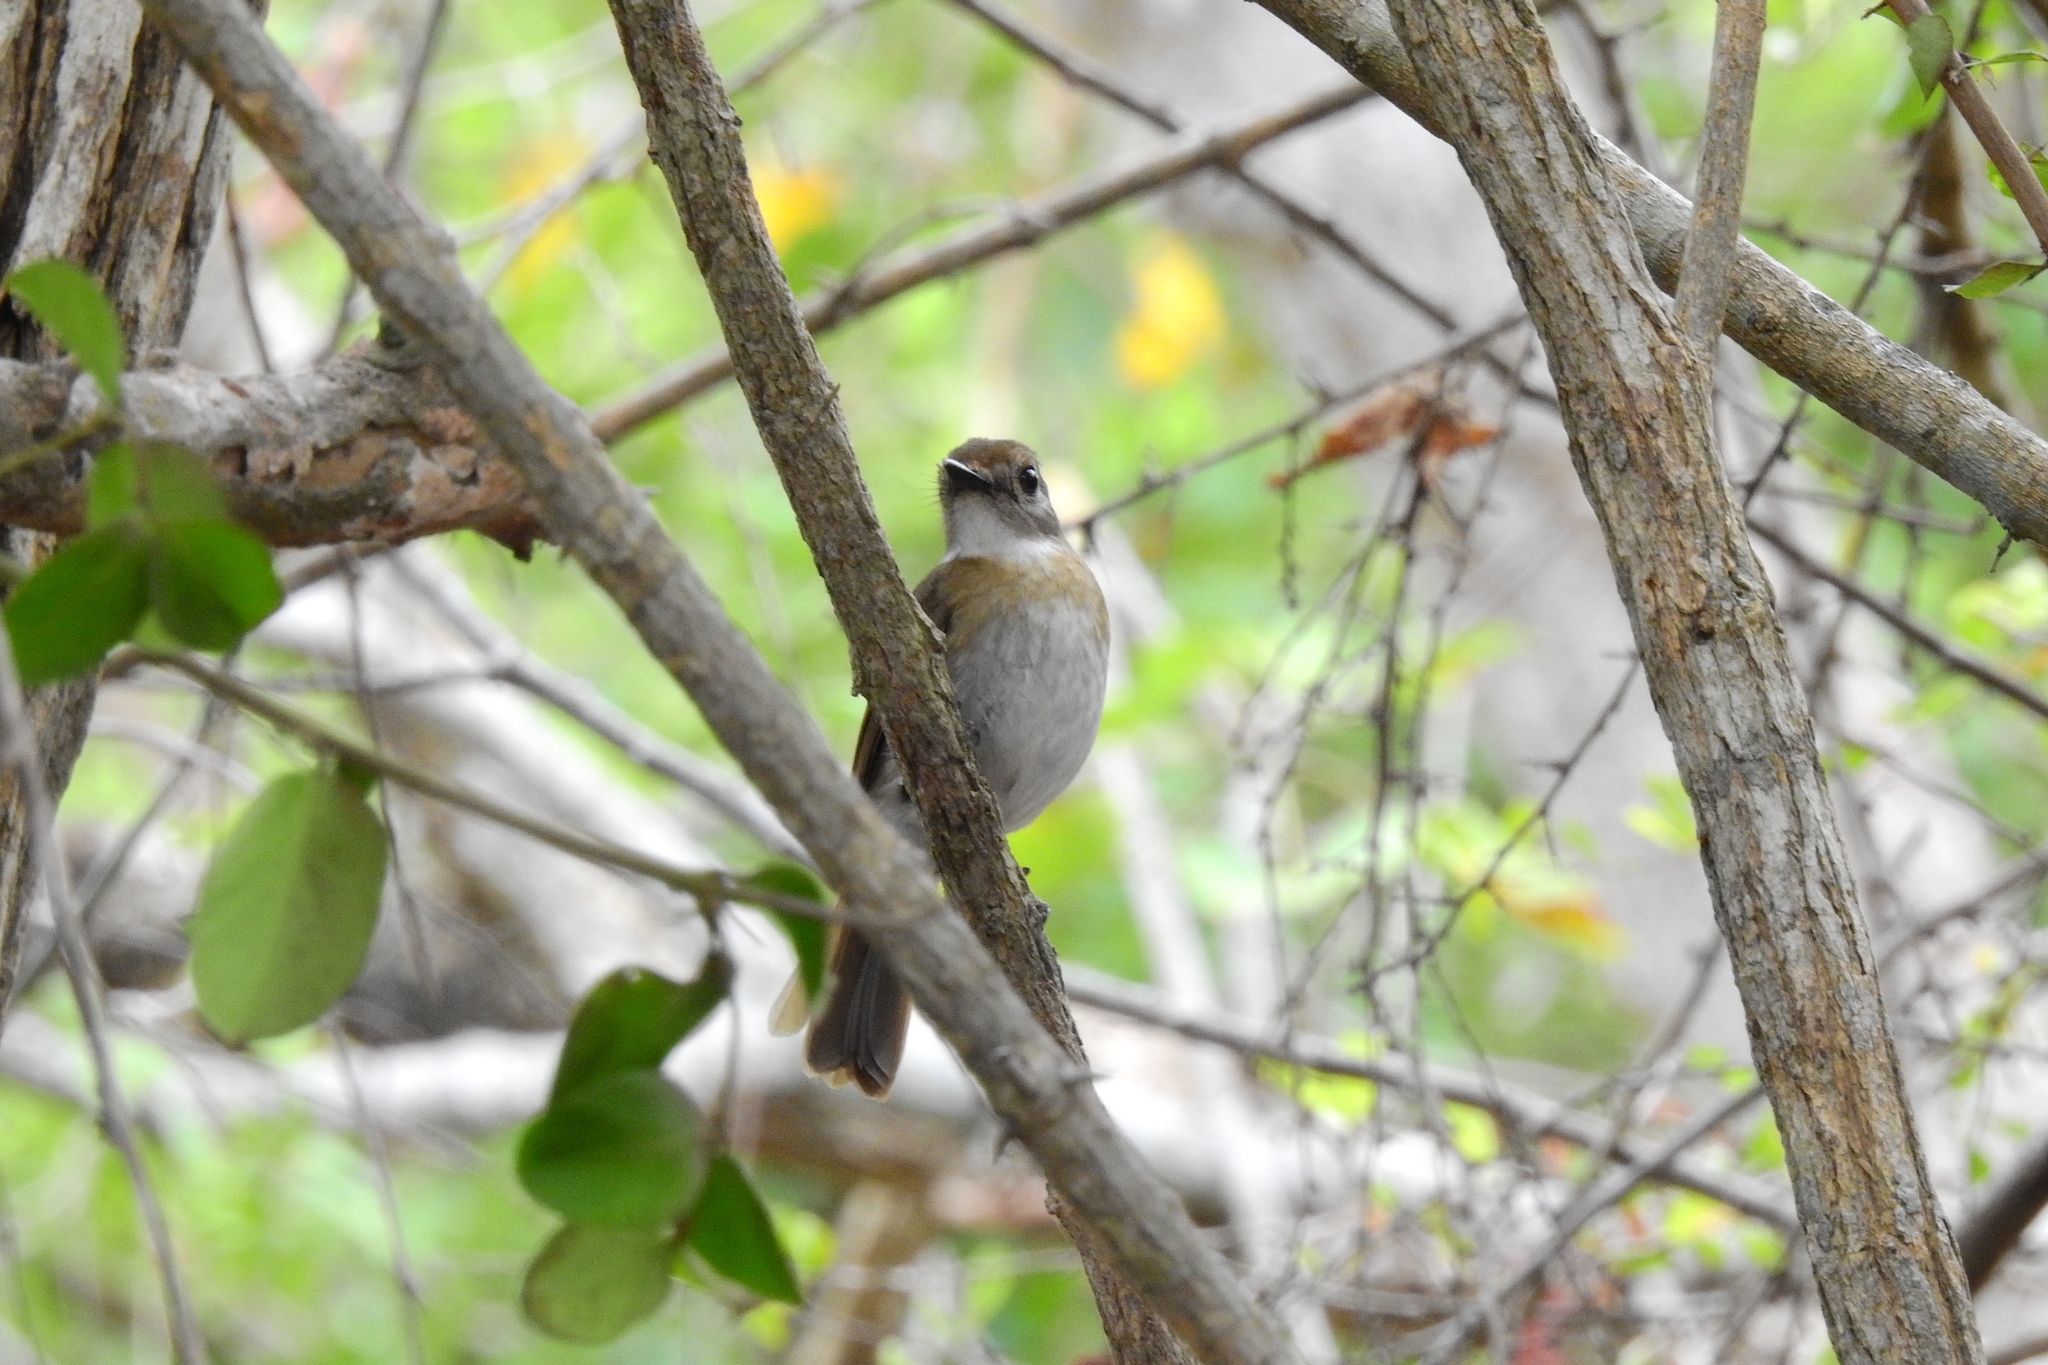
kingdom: Animalia
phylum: Chordata
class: Aves
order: Passeriformes
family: Muscicapidae
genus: Rhinomyias
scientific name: Rhinomyias olivaceus
